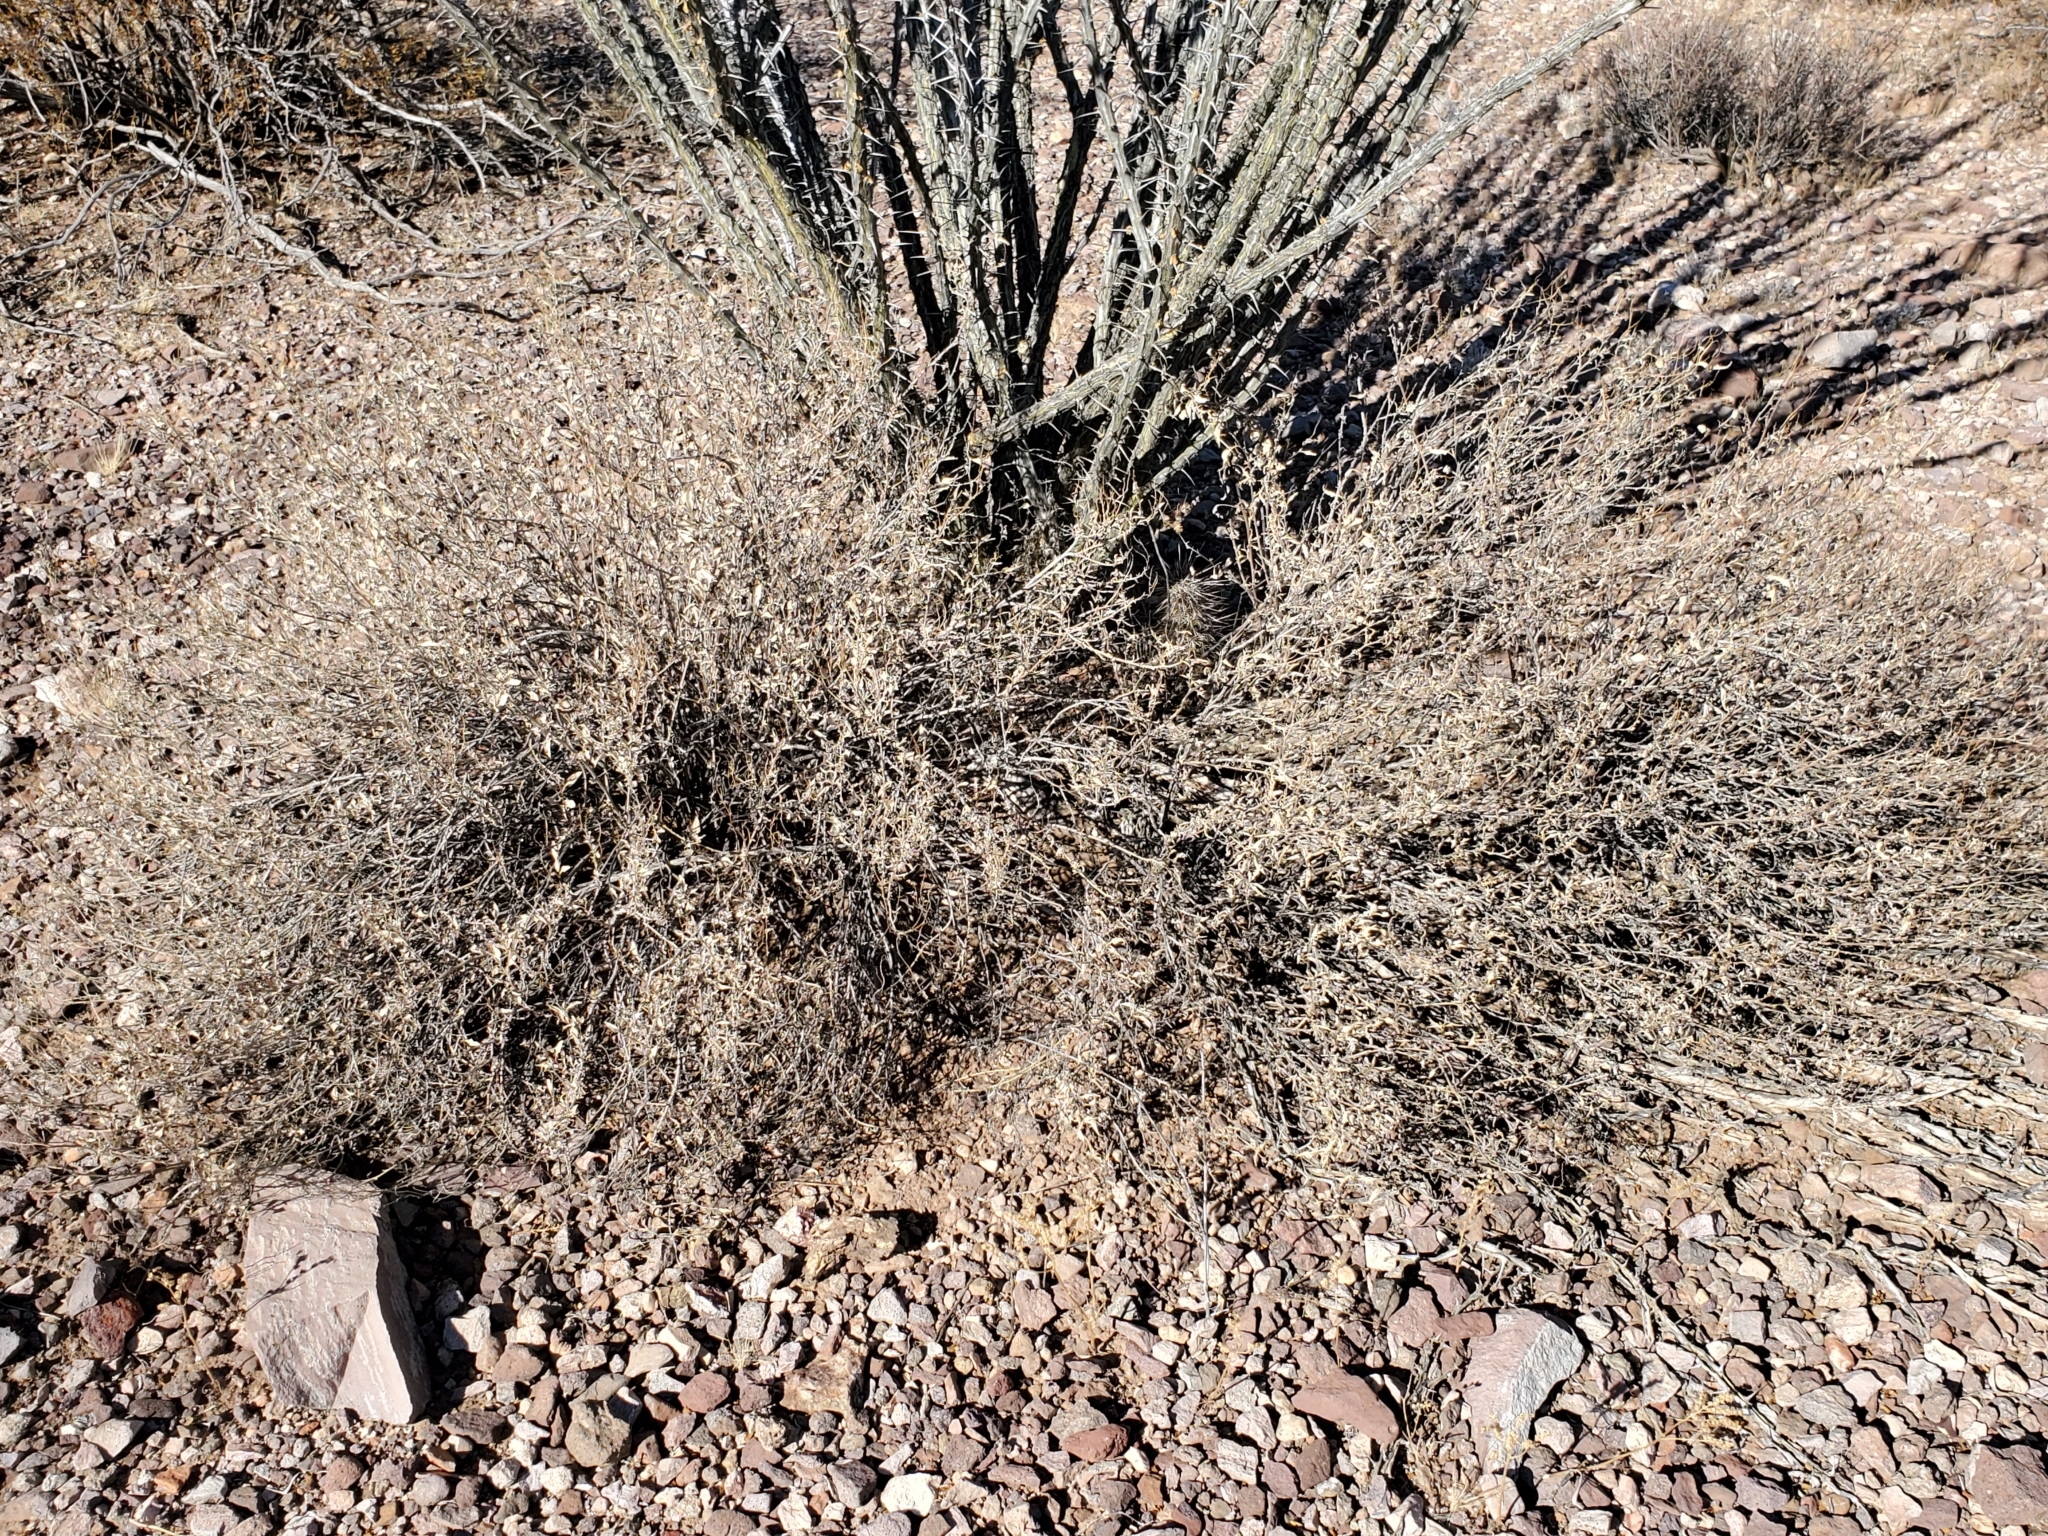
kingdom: Plantae
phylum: Tracheophyta
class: Magnoliopsida
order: Asterales
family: Asteraceae
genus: Ambrosia
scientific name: Ambrosia deltoidea
